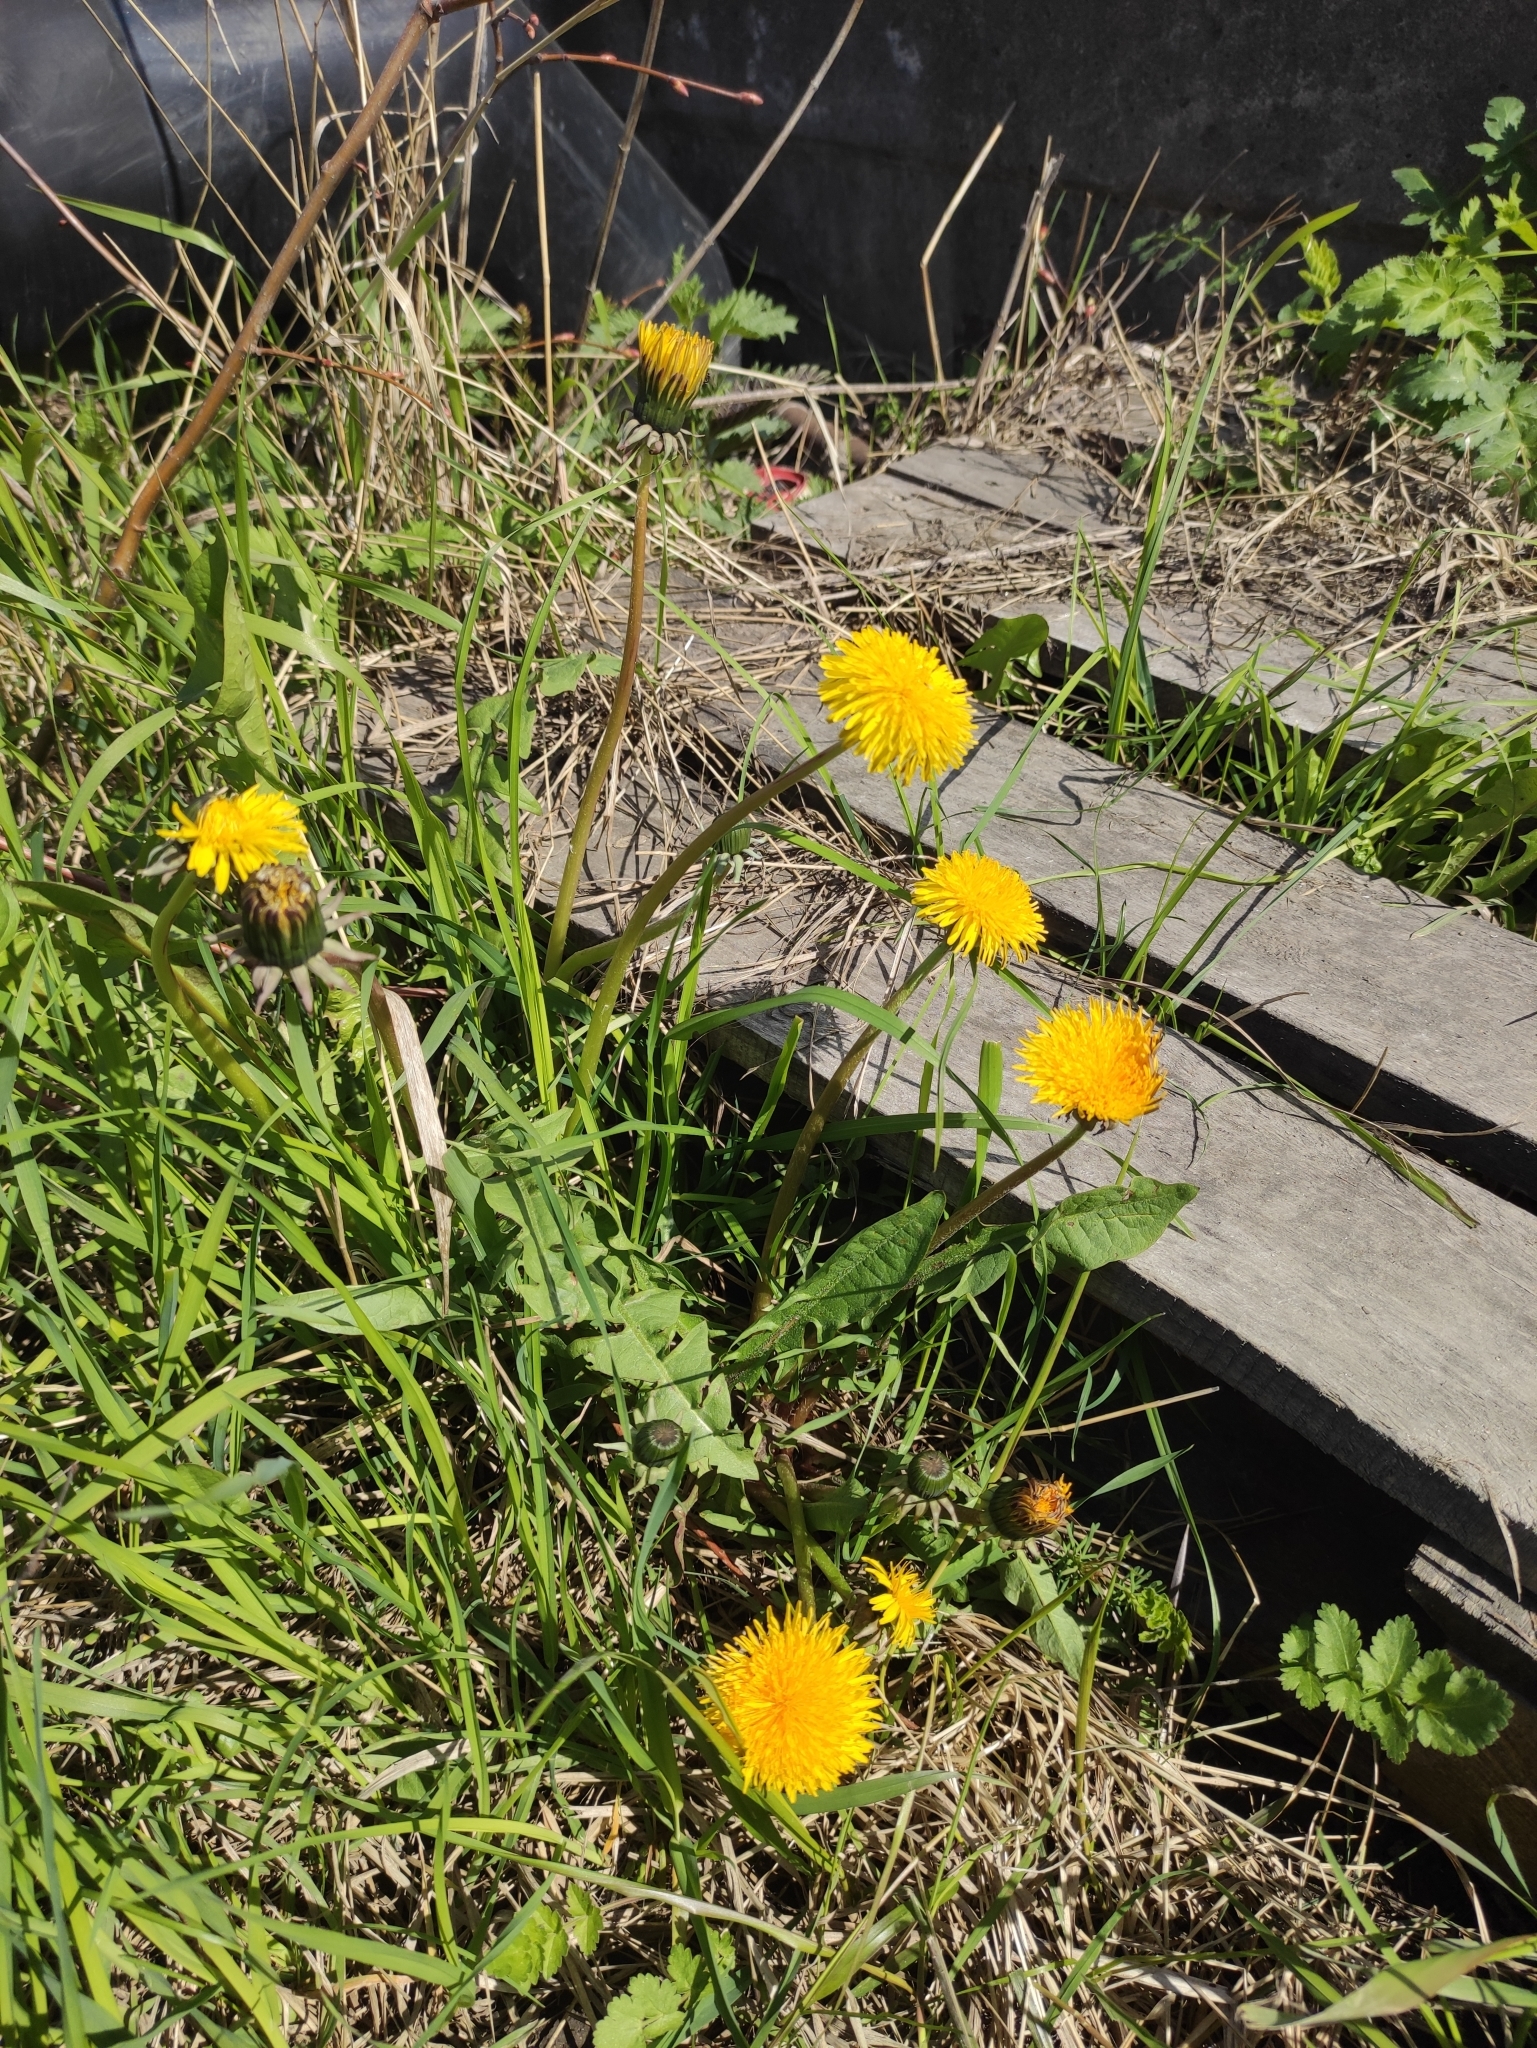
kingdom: Plantae
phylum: Tracheophyta
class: Magnoliopsida
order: Asterales
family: Asteraceae
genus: Taraxacum
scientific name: Taraxacum officinale
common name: Common dandelion
